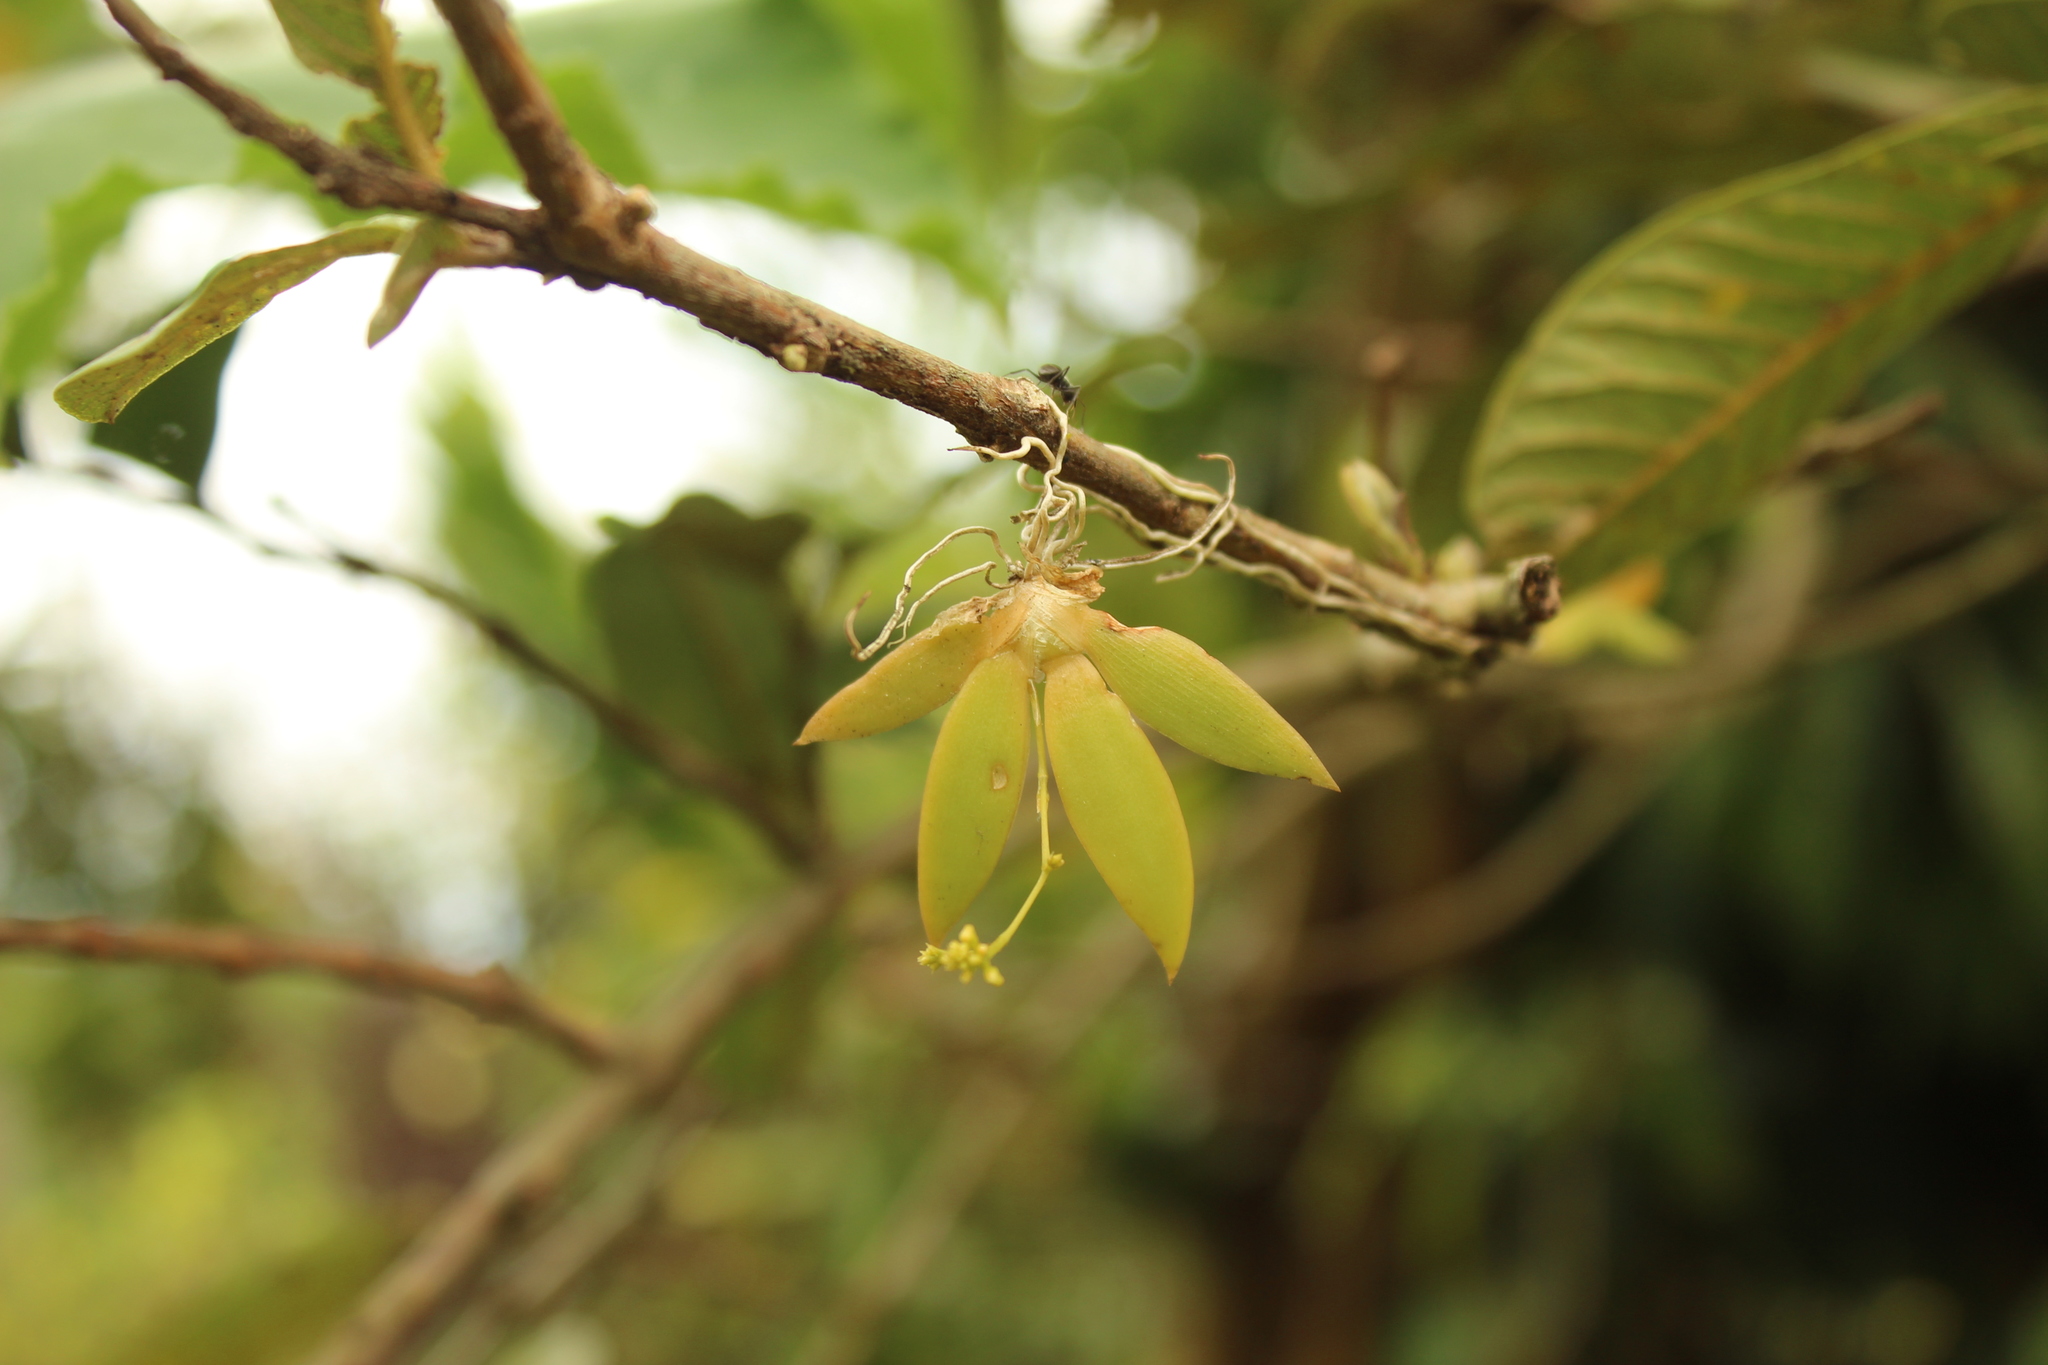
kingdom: Plantae
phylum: Tracheophyta
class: Liliopsida
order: Asparagales
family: Orchidaceae
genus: Trizeuxis
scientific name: Trizeuxis falcata
